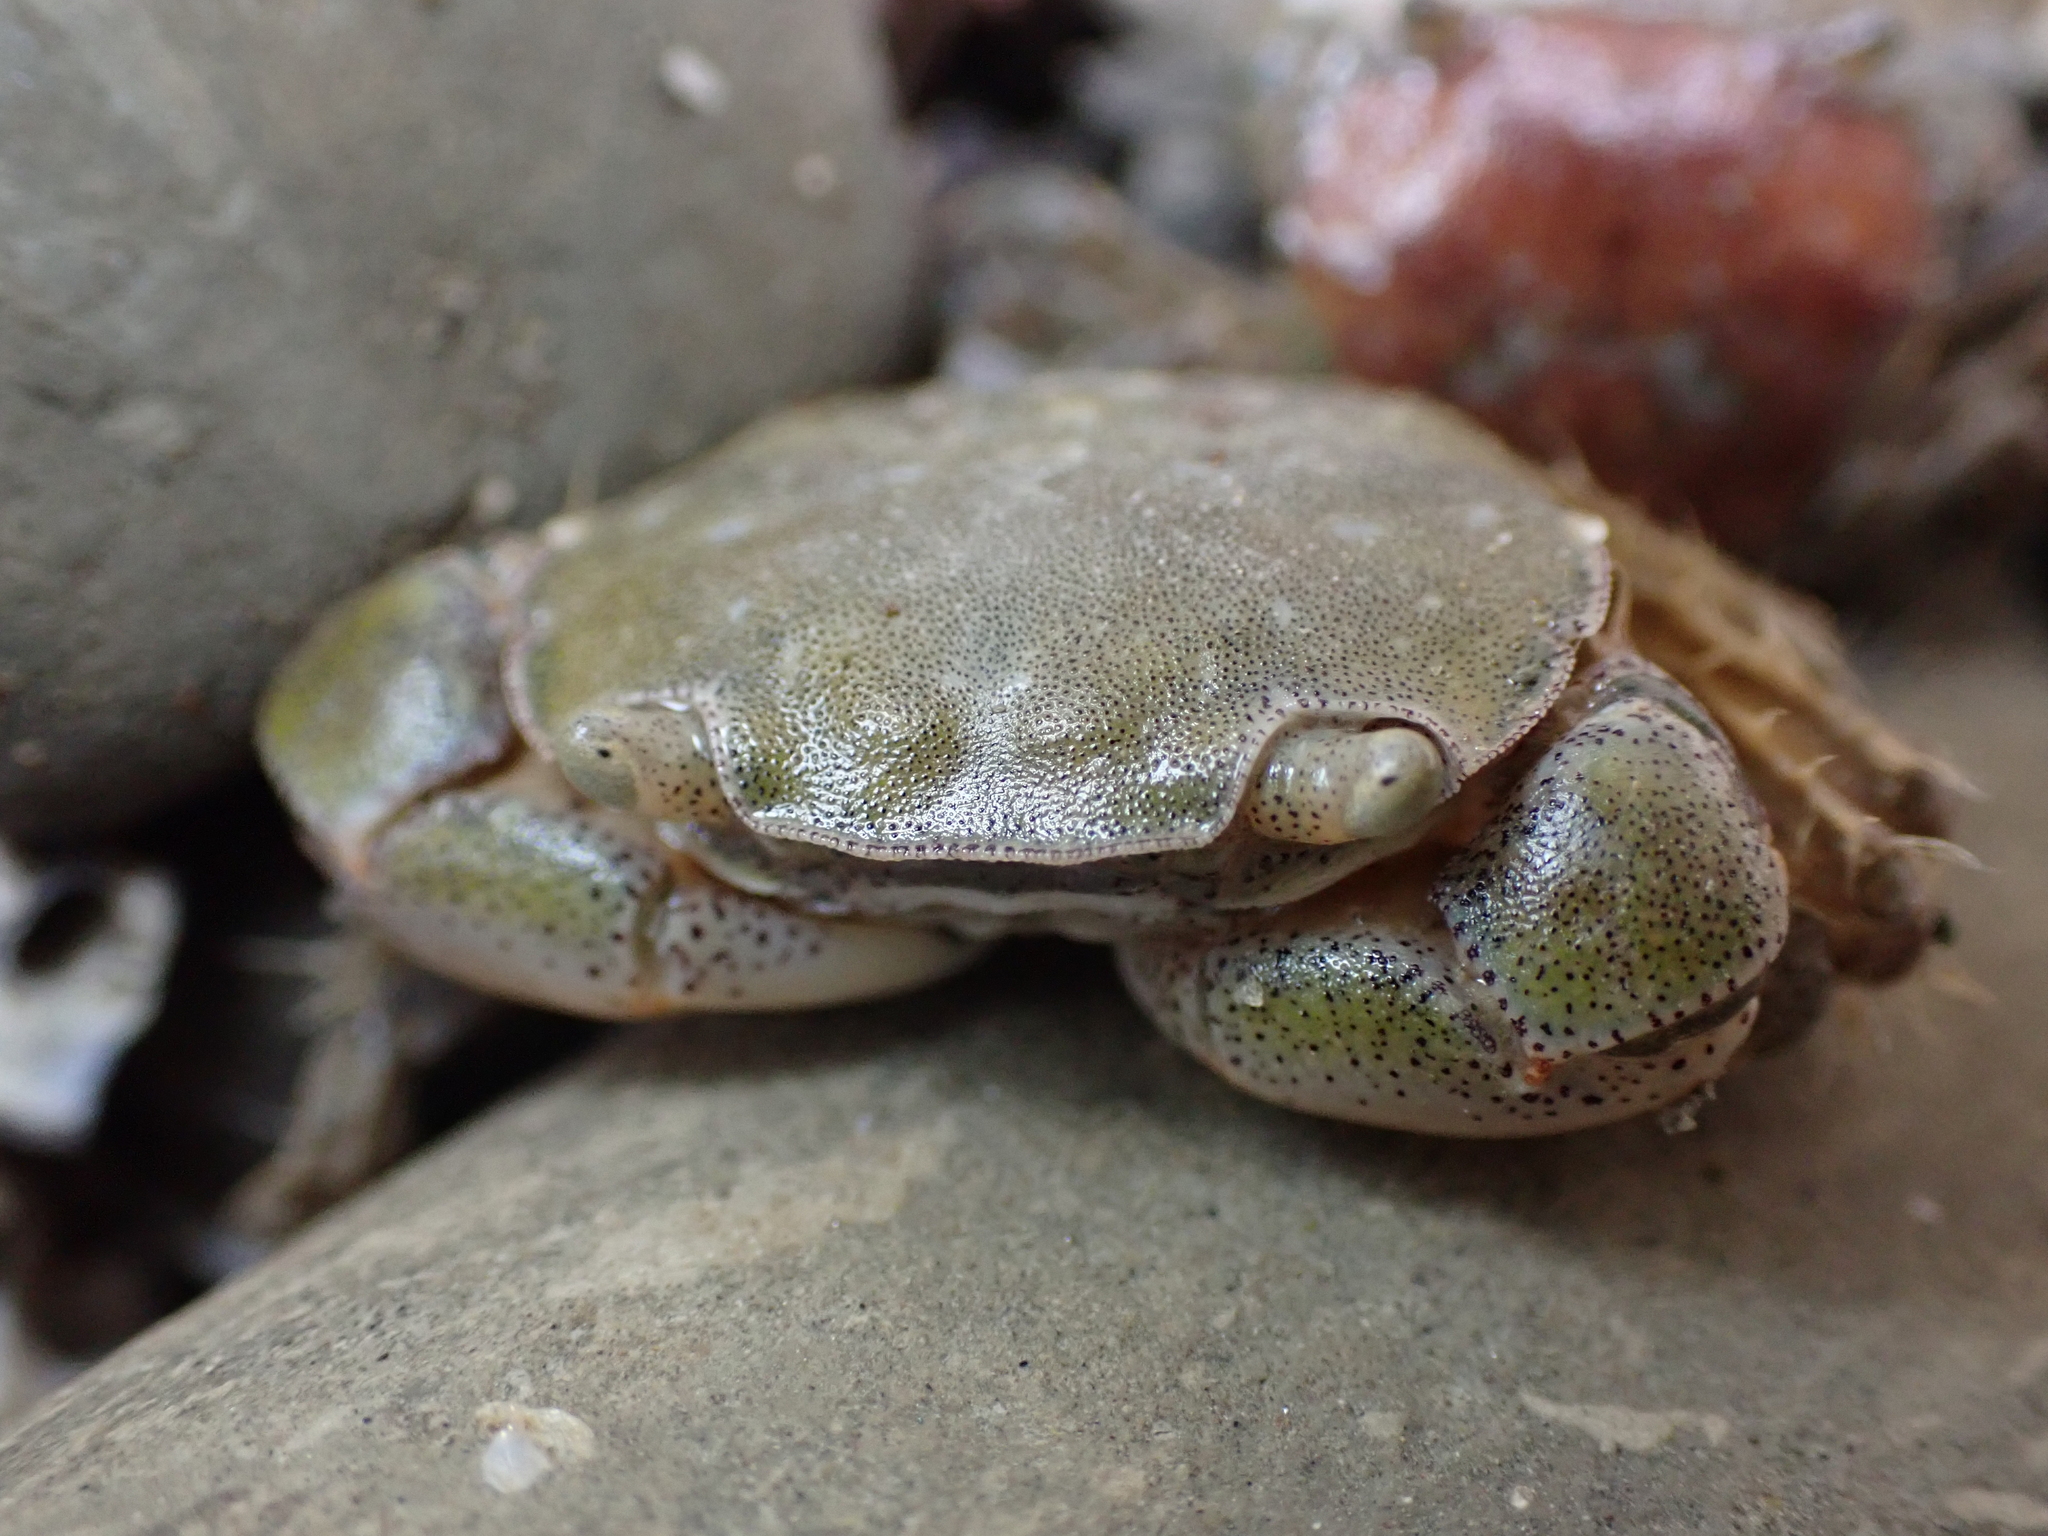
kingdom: Animalia
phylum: Arthropoda
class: Malacostraca
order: Decapoda
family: Varunidae
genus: Hemigrapsus
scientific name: Hemigrapsus crenulatus
